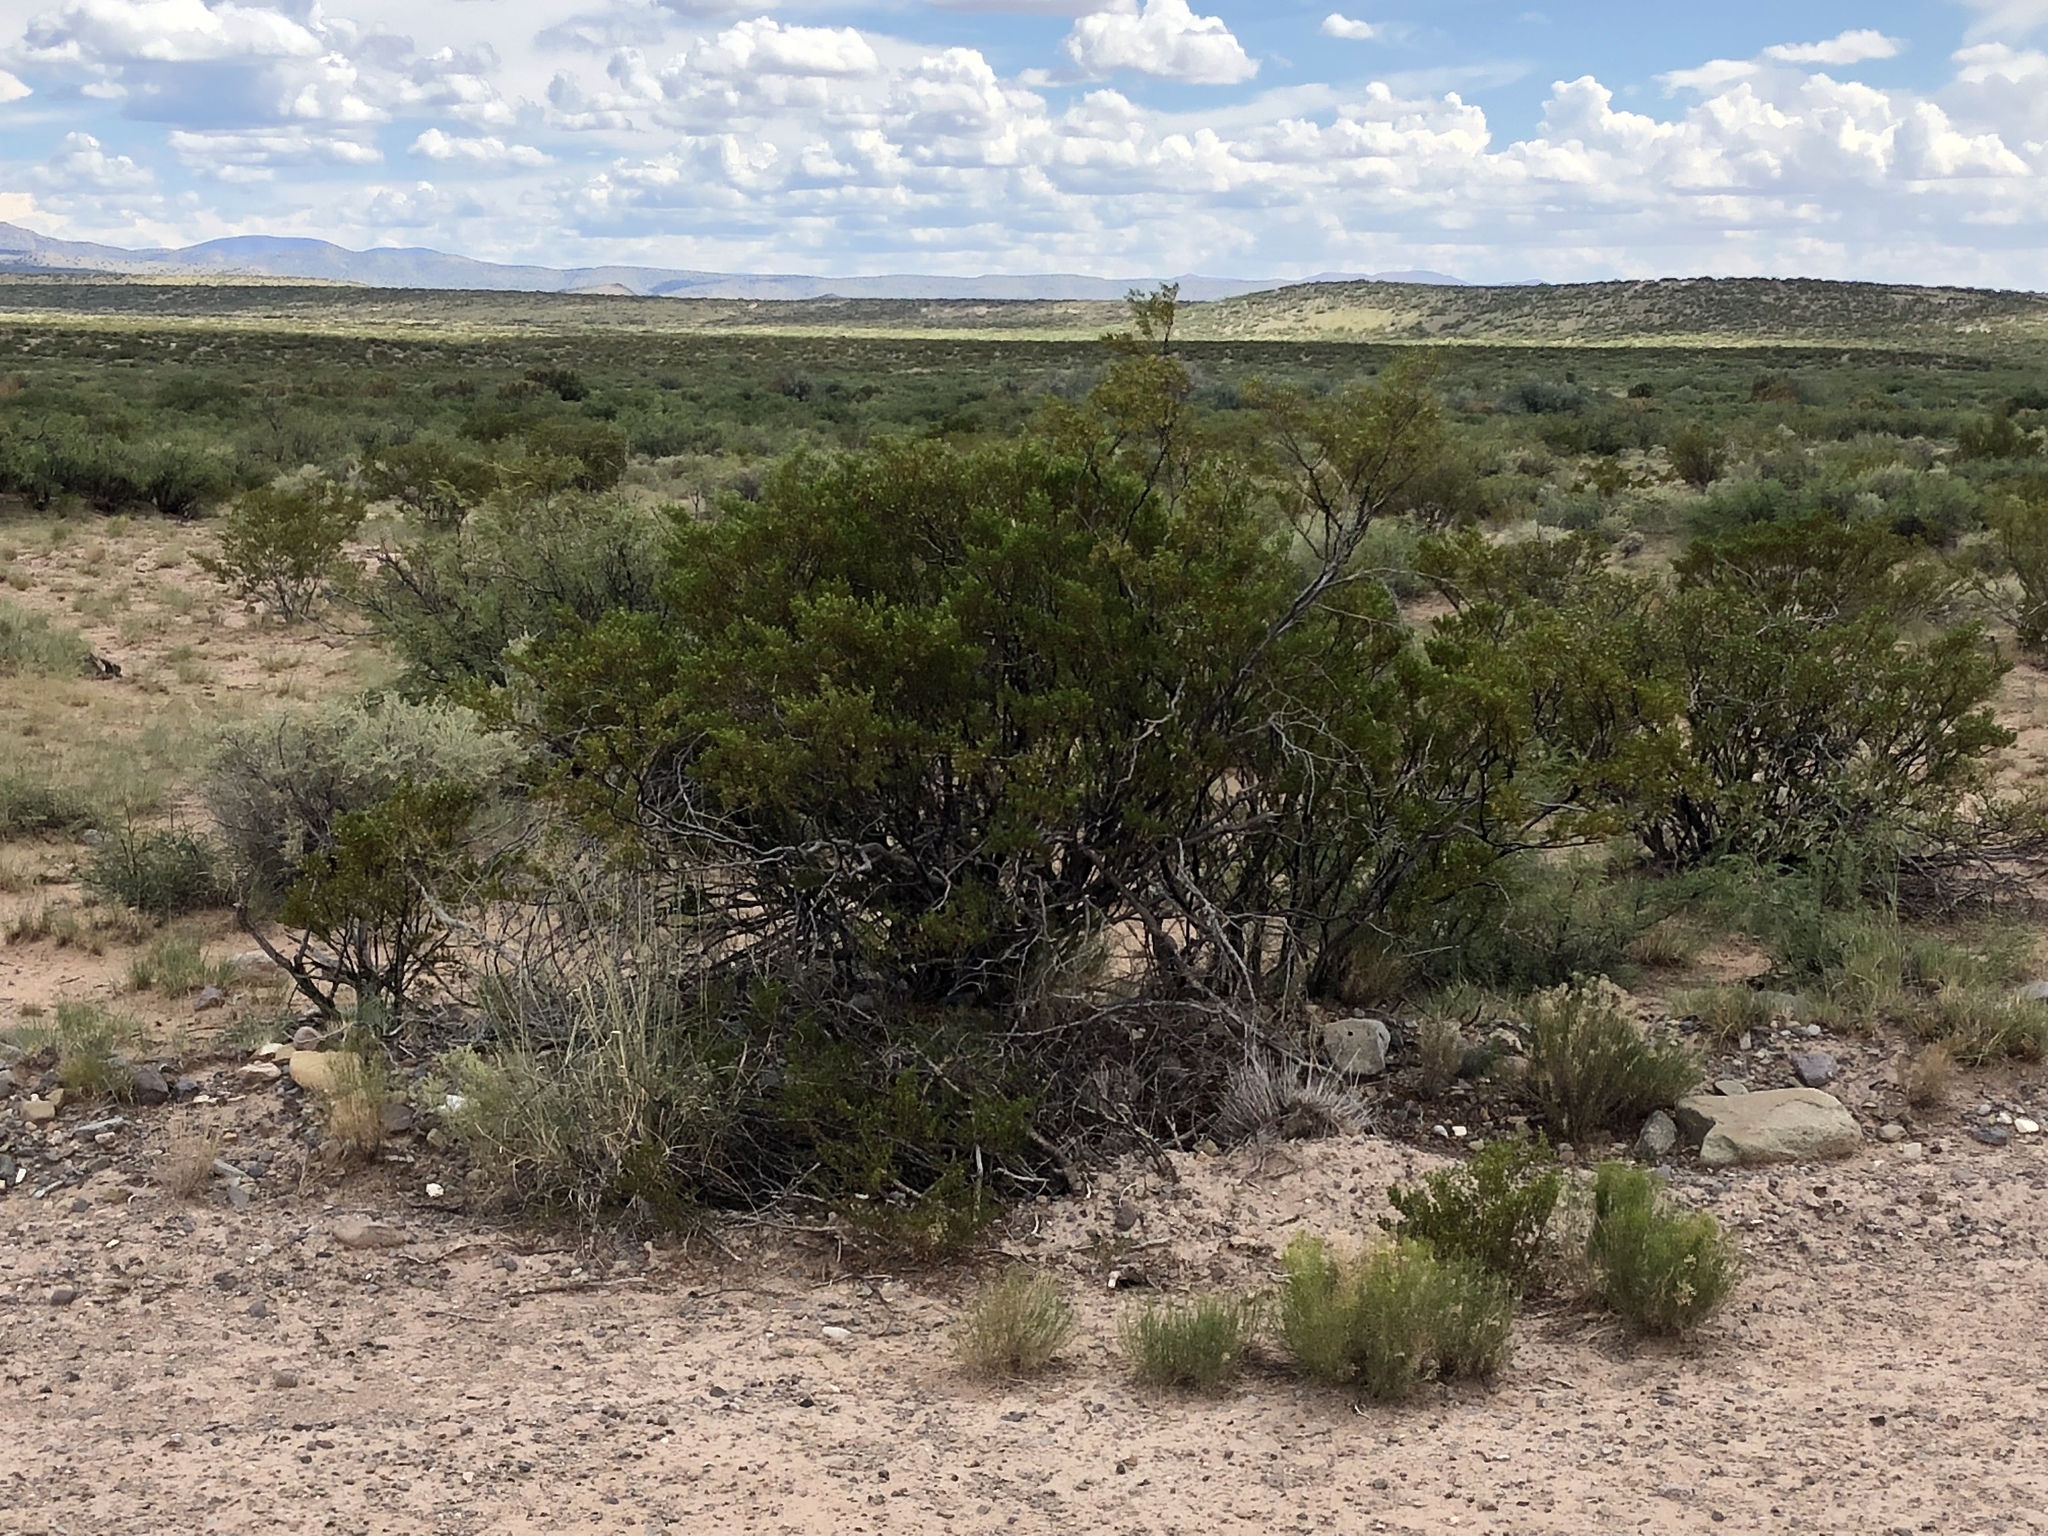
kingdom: Plantae
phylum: Tracheophyta
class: Magnoliopsida
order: Zygophyllales
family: Zygophyllaceae
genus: Larrea
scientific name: Larrea tridentata
